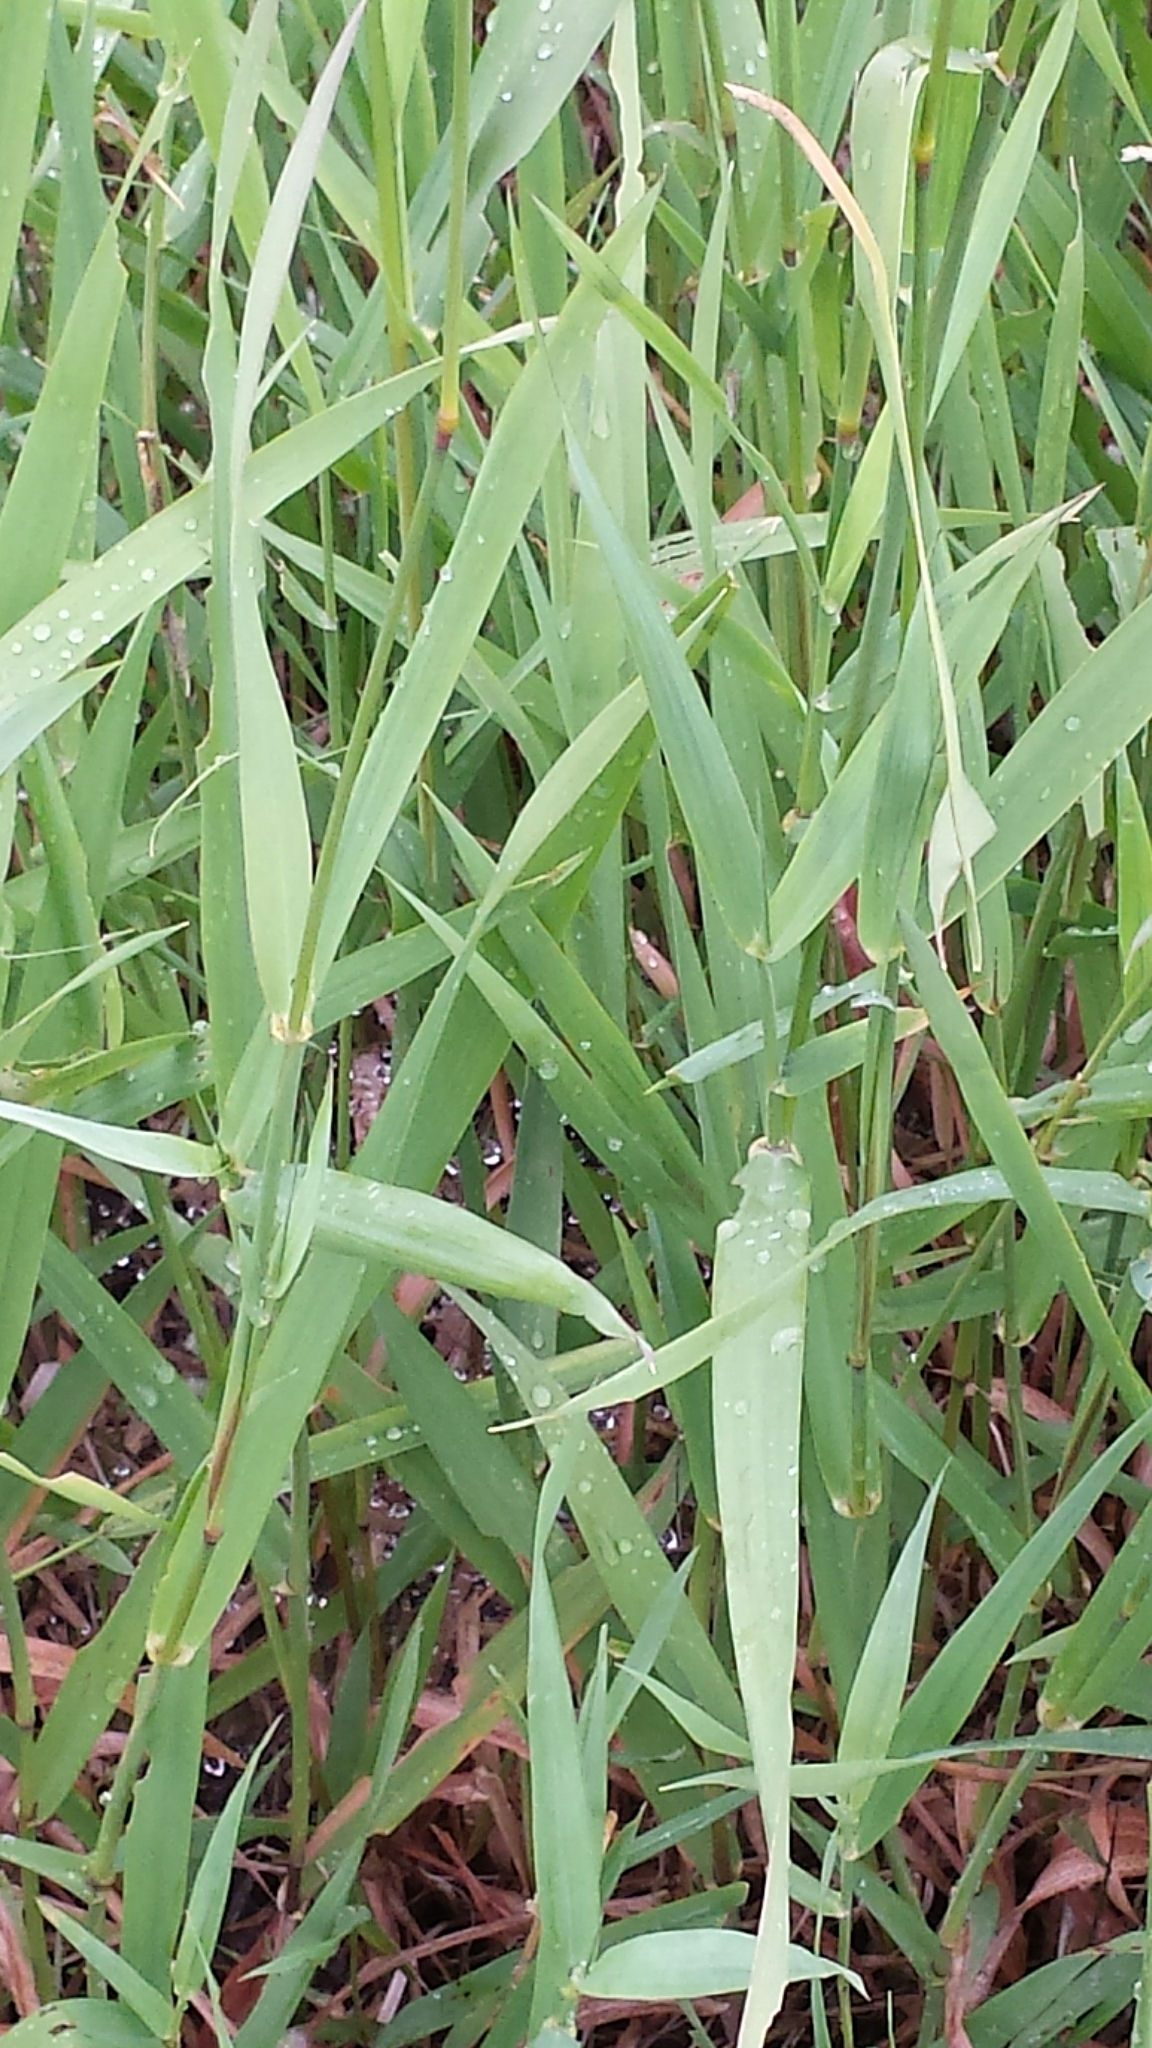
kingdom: Plantae
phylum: Tracheophyta
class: Liliopsida
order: Poales
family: Poaceae
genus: Phalaris
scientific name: Phalaris arundinacea
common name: Reed canary-grass
